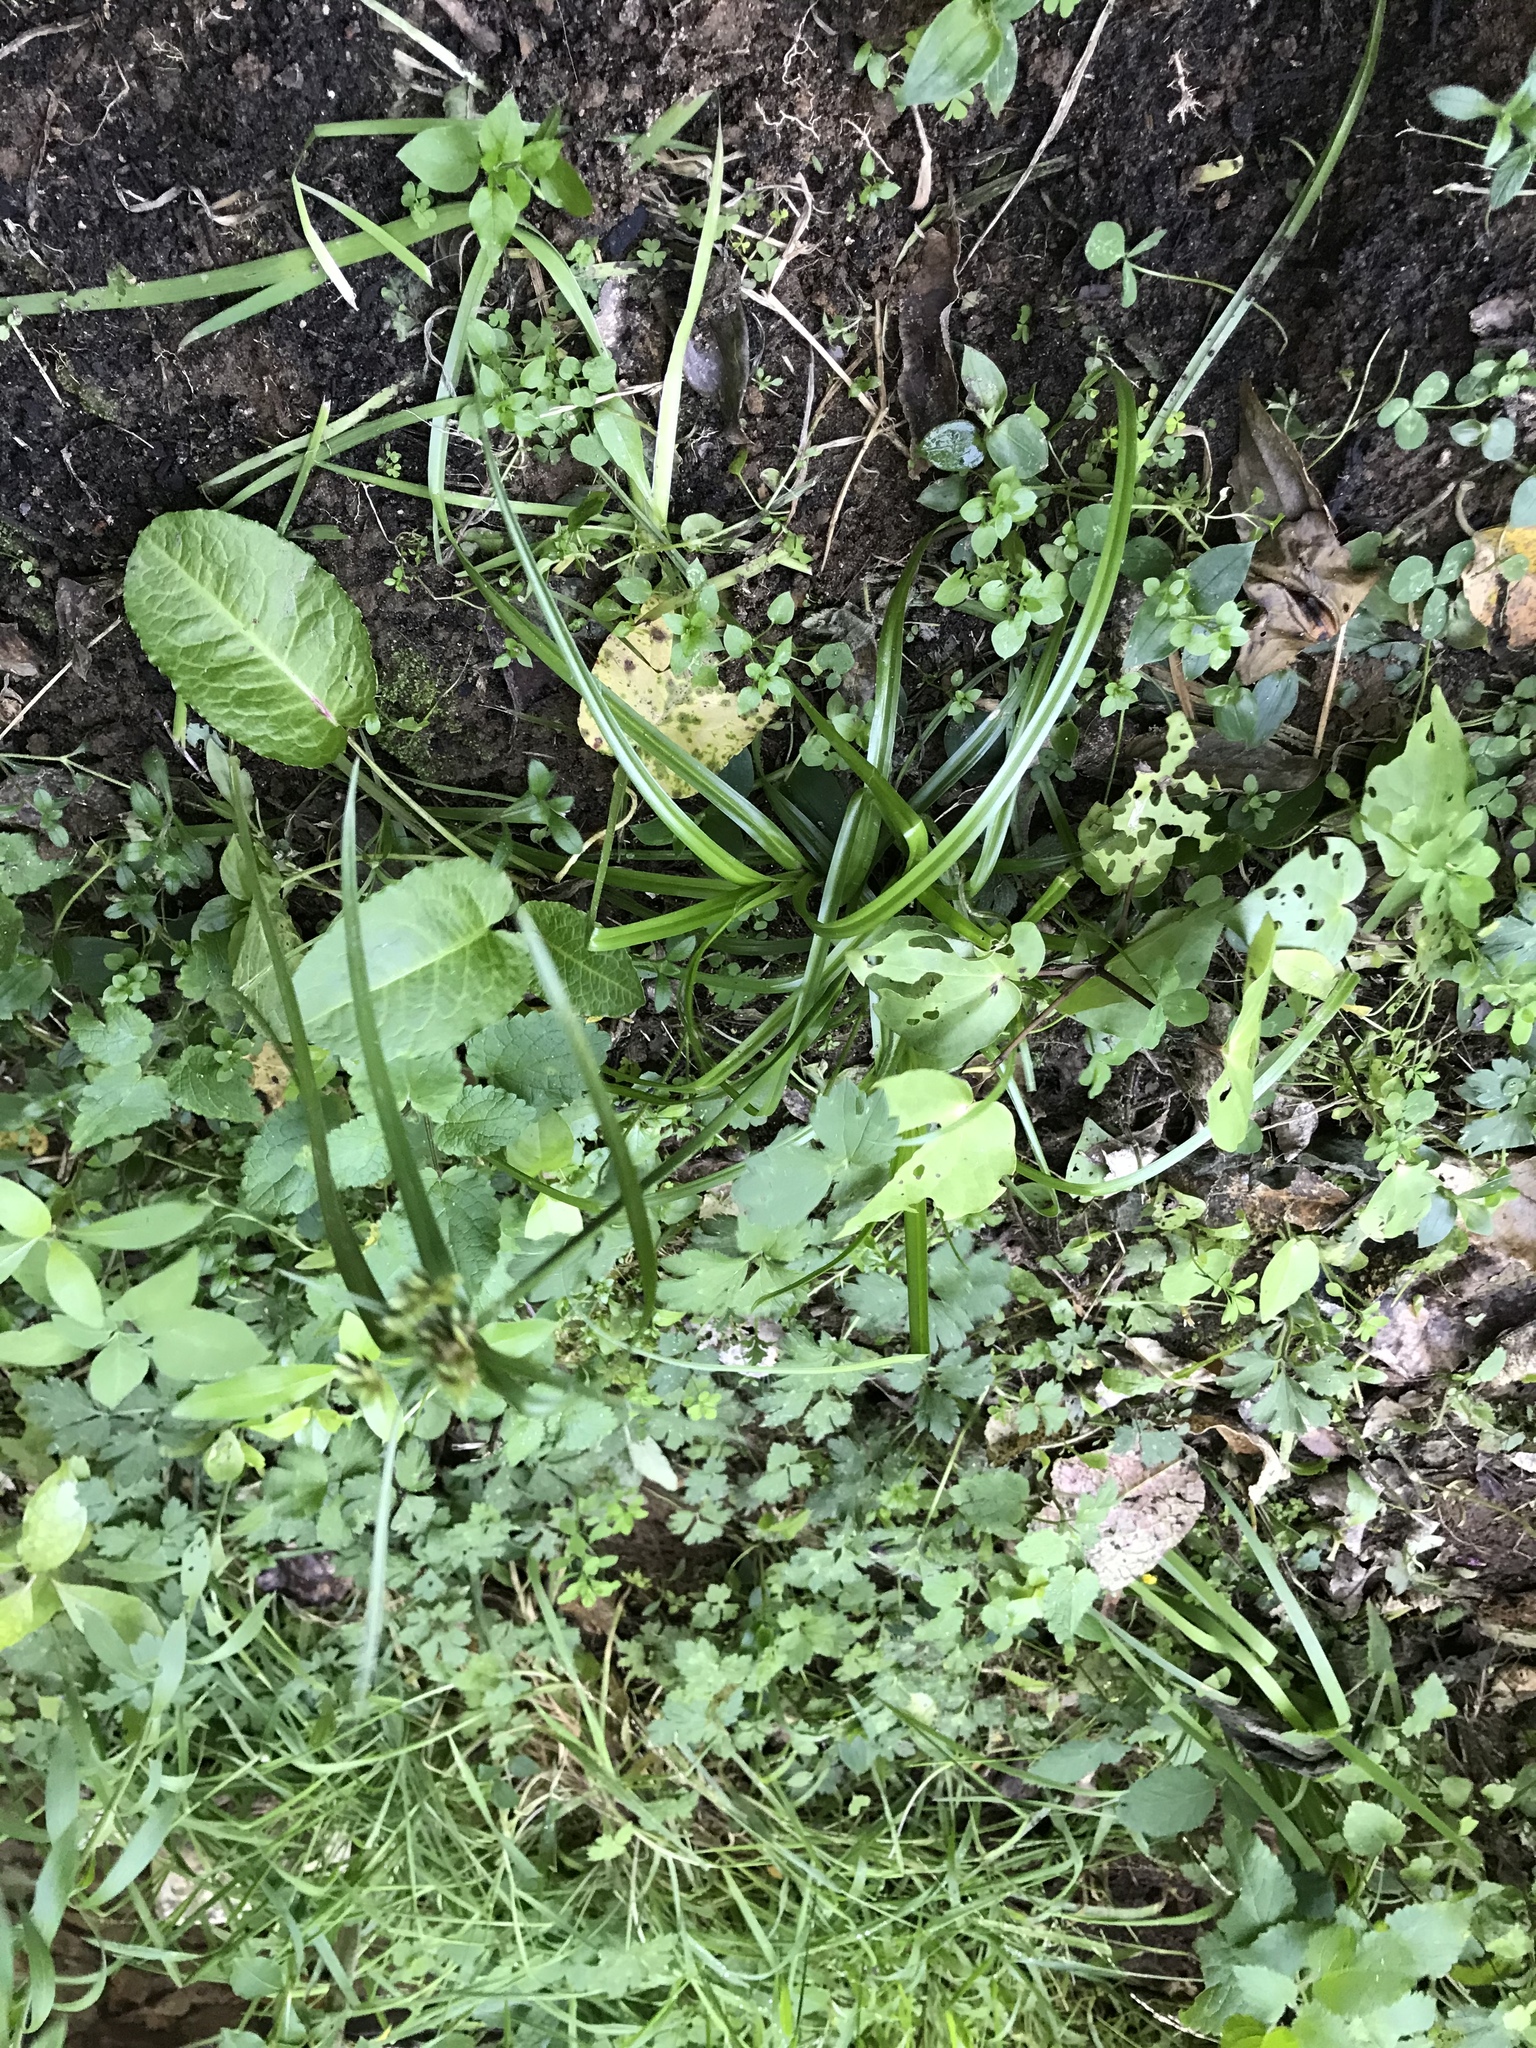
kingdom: Plantae
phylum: Tracheophyta
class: Liliopsida
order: Poales
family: Cyperaceae
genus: Cyperus
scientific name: Cyperus eragrostis
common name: Tall flatsedge
